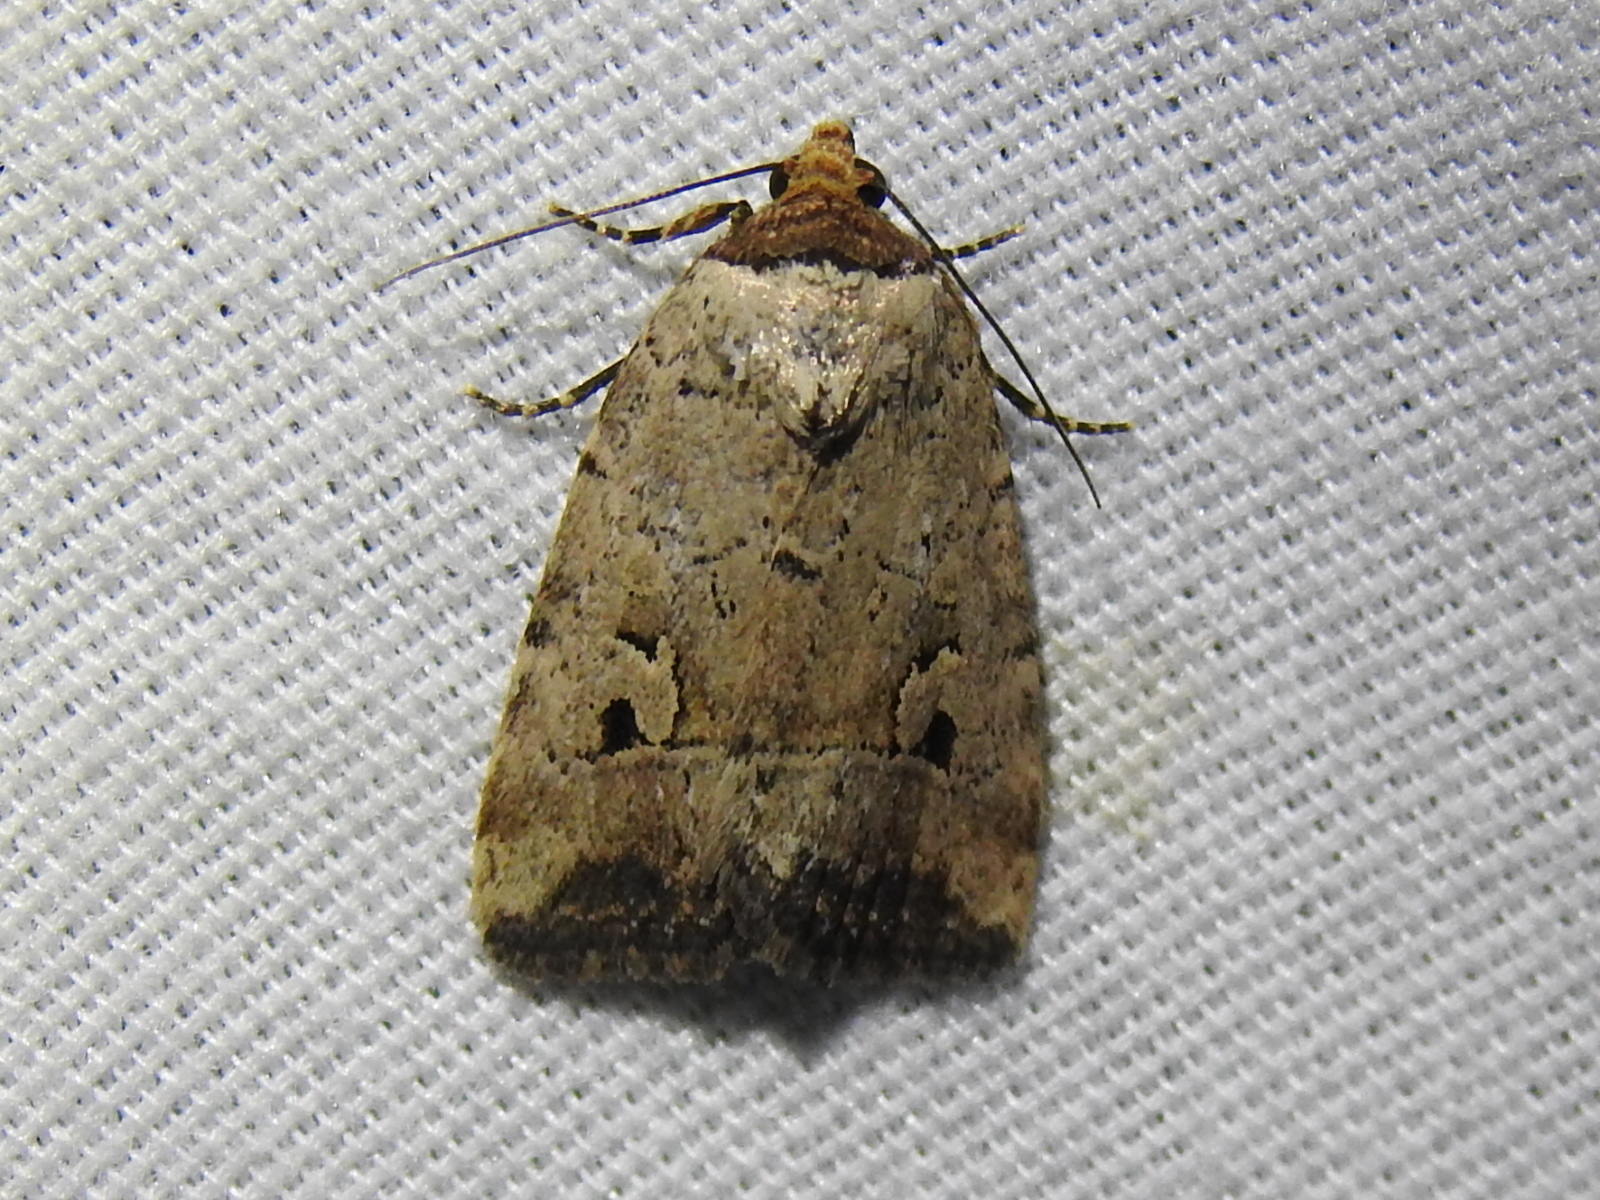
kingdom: Animalia
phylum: Arthropoda
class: Insecta
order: Lepidoptera
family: Noctuidae
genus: Elaphria
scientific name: Elaphria festivoides
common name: Festive midget
